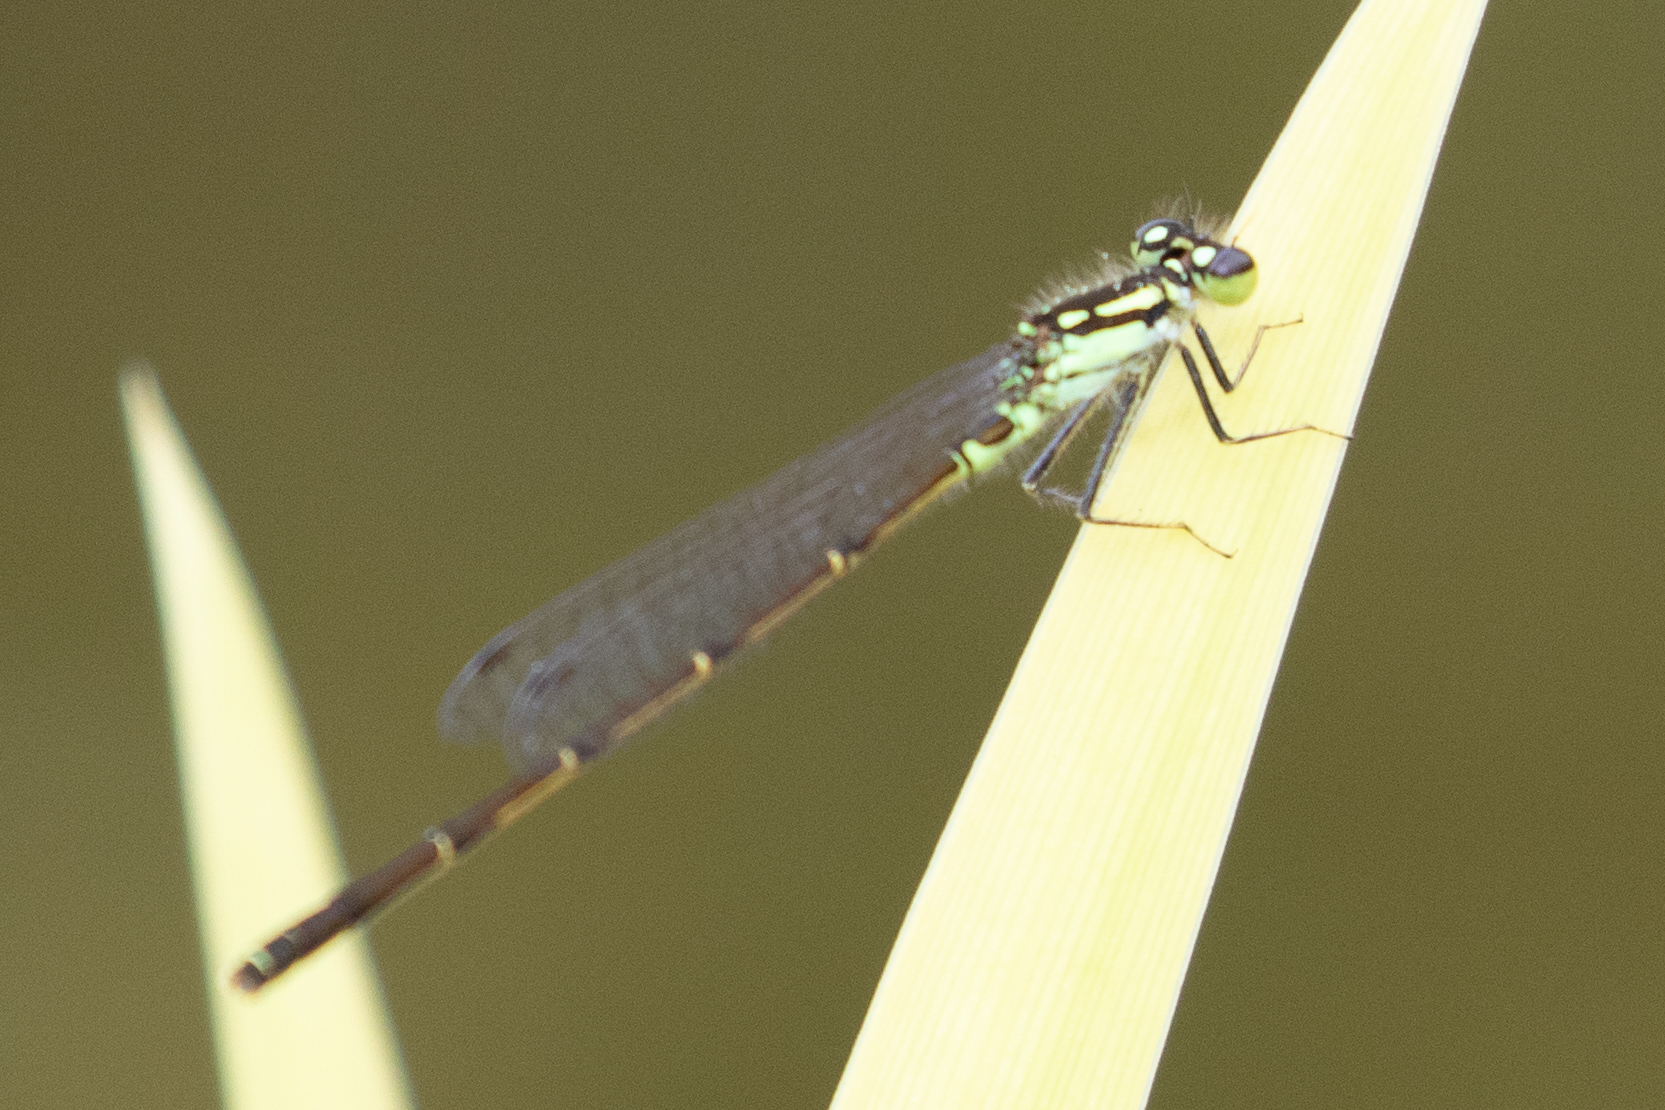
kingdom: Animalia
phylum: Arthropoda
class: Insecta
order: Odonata
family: Coenagrionidae
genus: Ischnura
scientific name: Ischnura posita
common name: Fragile forktail
